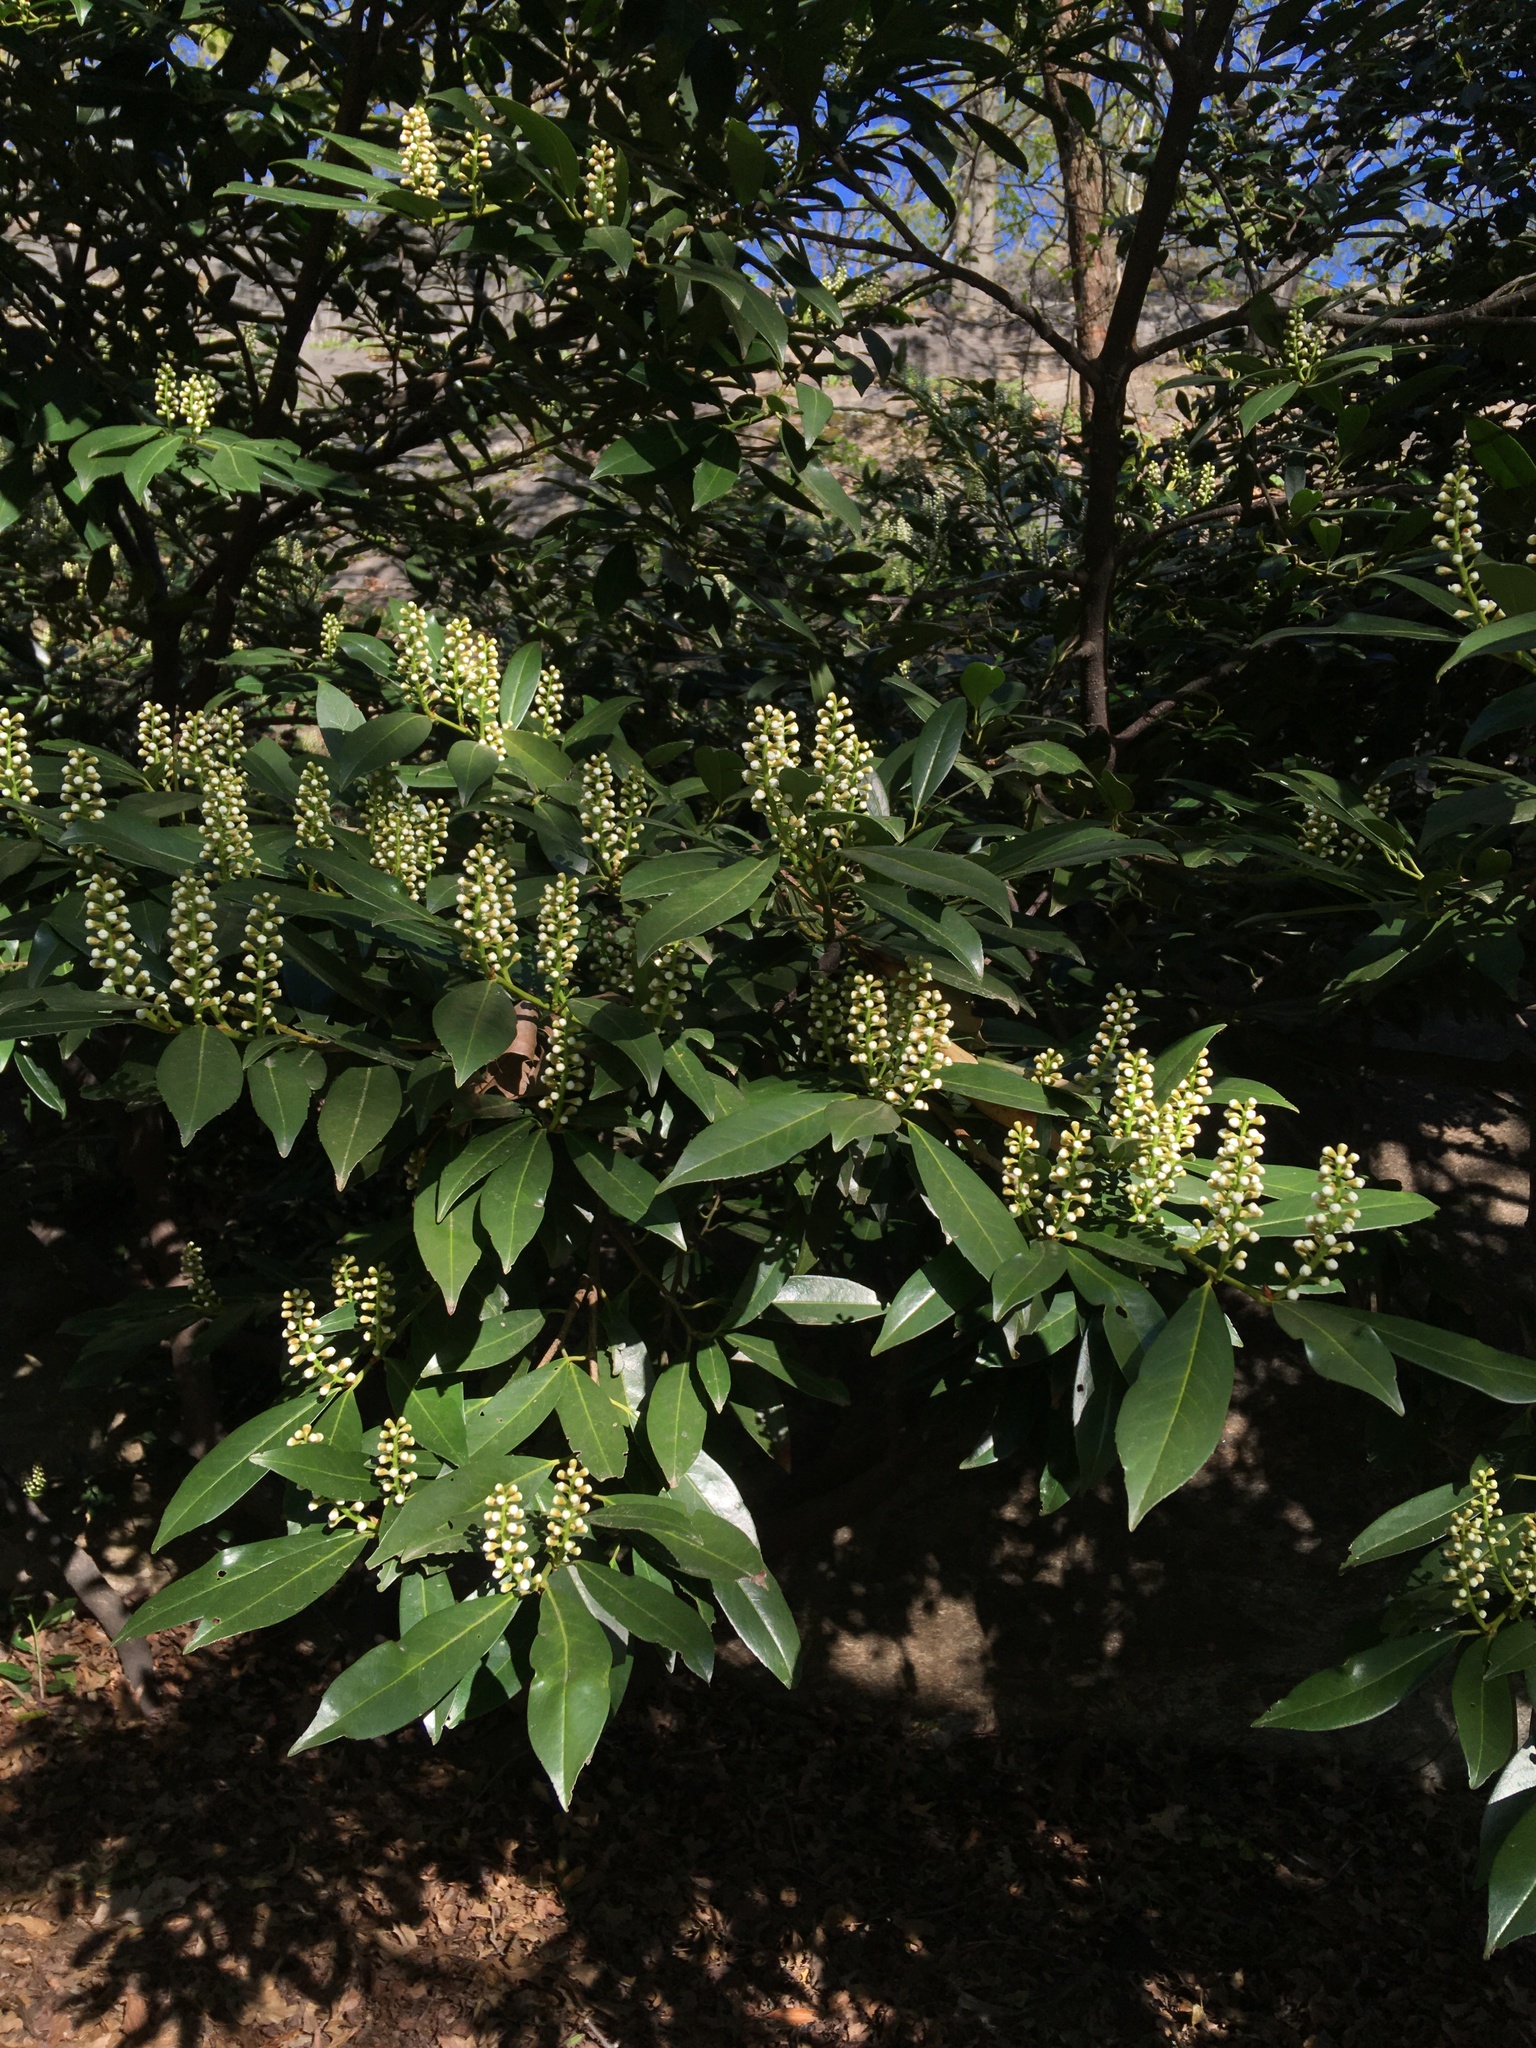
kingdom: Plantae
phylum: Tracheophyta
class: Magnoliopsida
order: Rosales
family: Rosaceae
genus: Prunus
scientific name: Prunus laurocerasus
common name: Cherry laurel
